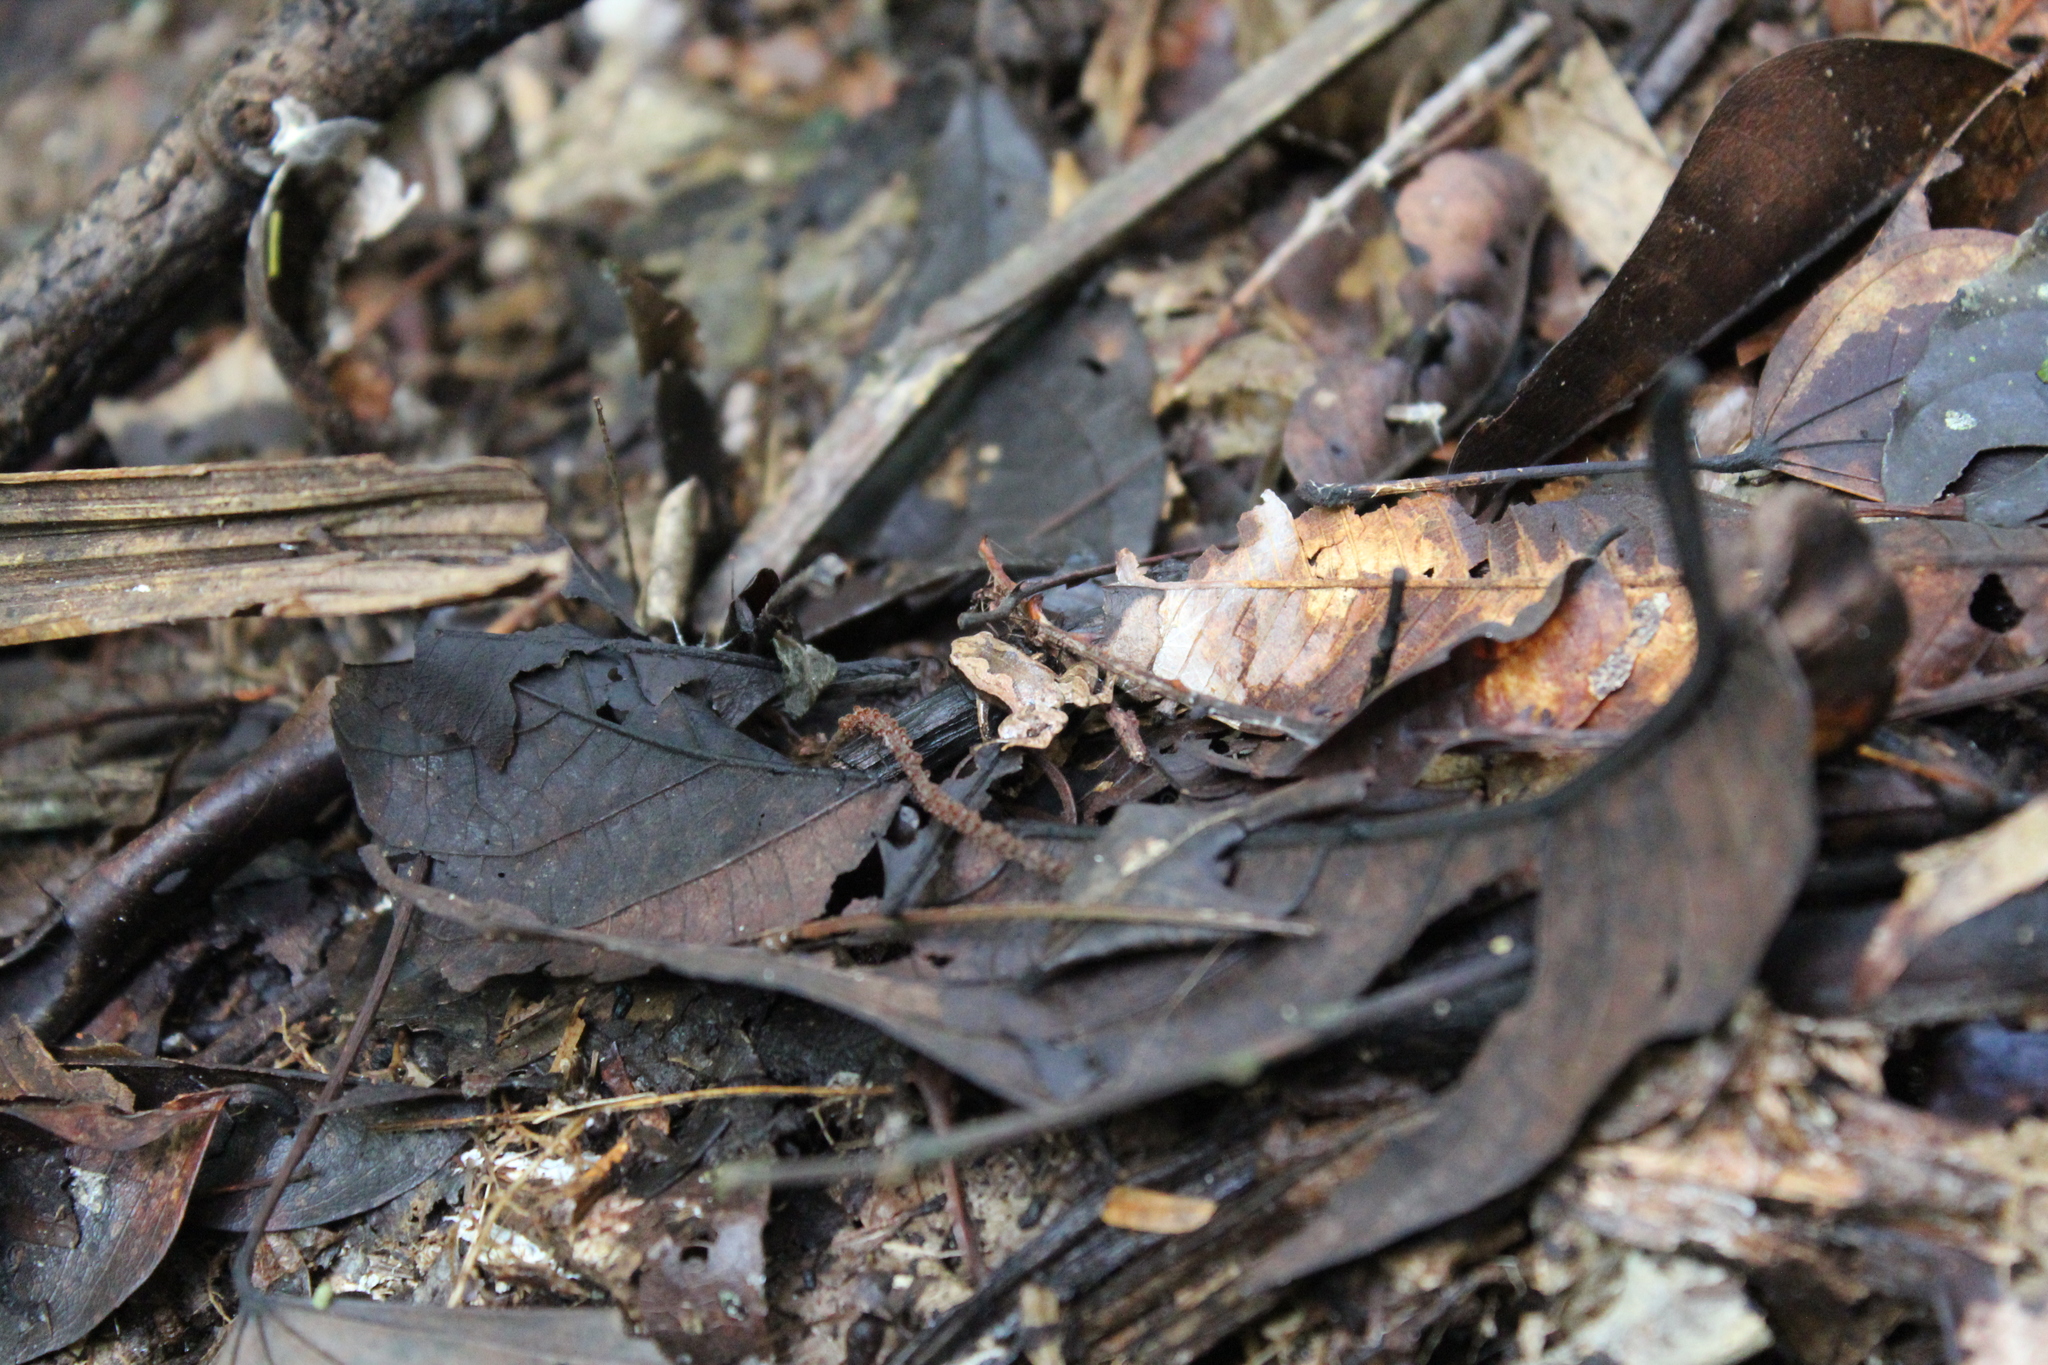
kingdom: Animalia
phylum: Chordata
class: Amphibia
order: Anura
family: Microhylidae
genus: Hamptophryne
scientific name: Hamptophryne boliviana
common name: Bolivian bleating frog
